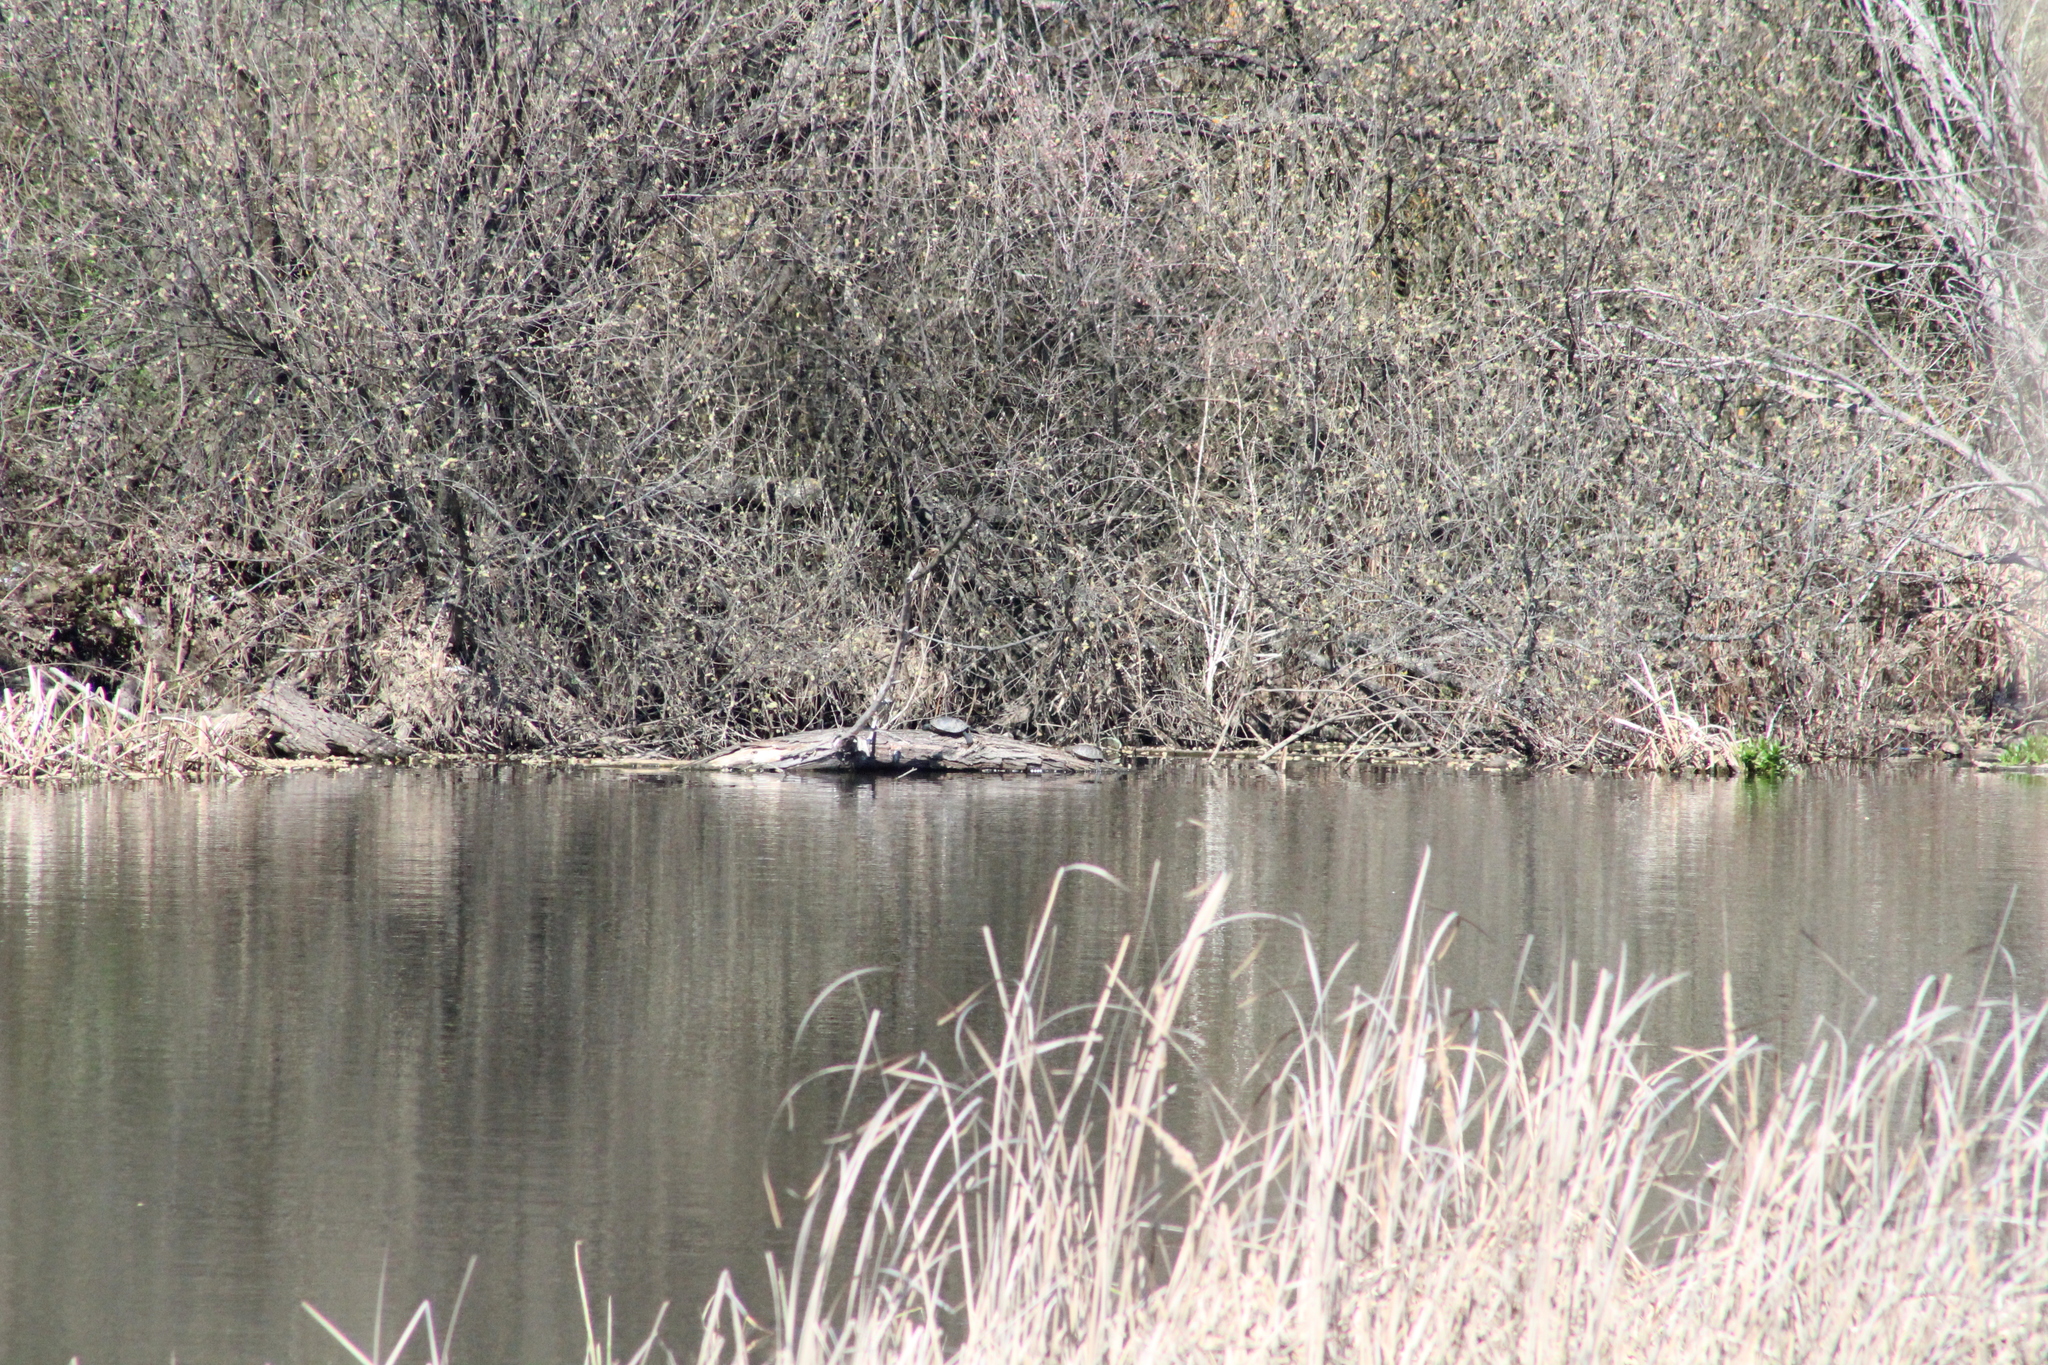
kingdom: Animalia
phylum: Chordata
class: Testudines
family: Geoemydidae
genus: Mauremys
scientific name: Mauremys leprosa
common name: Mediterranean pond turtle
